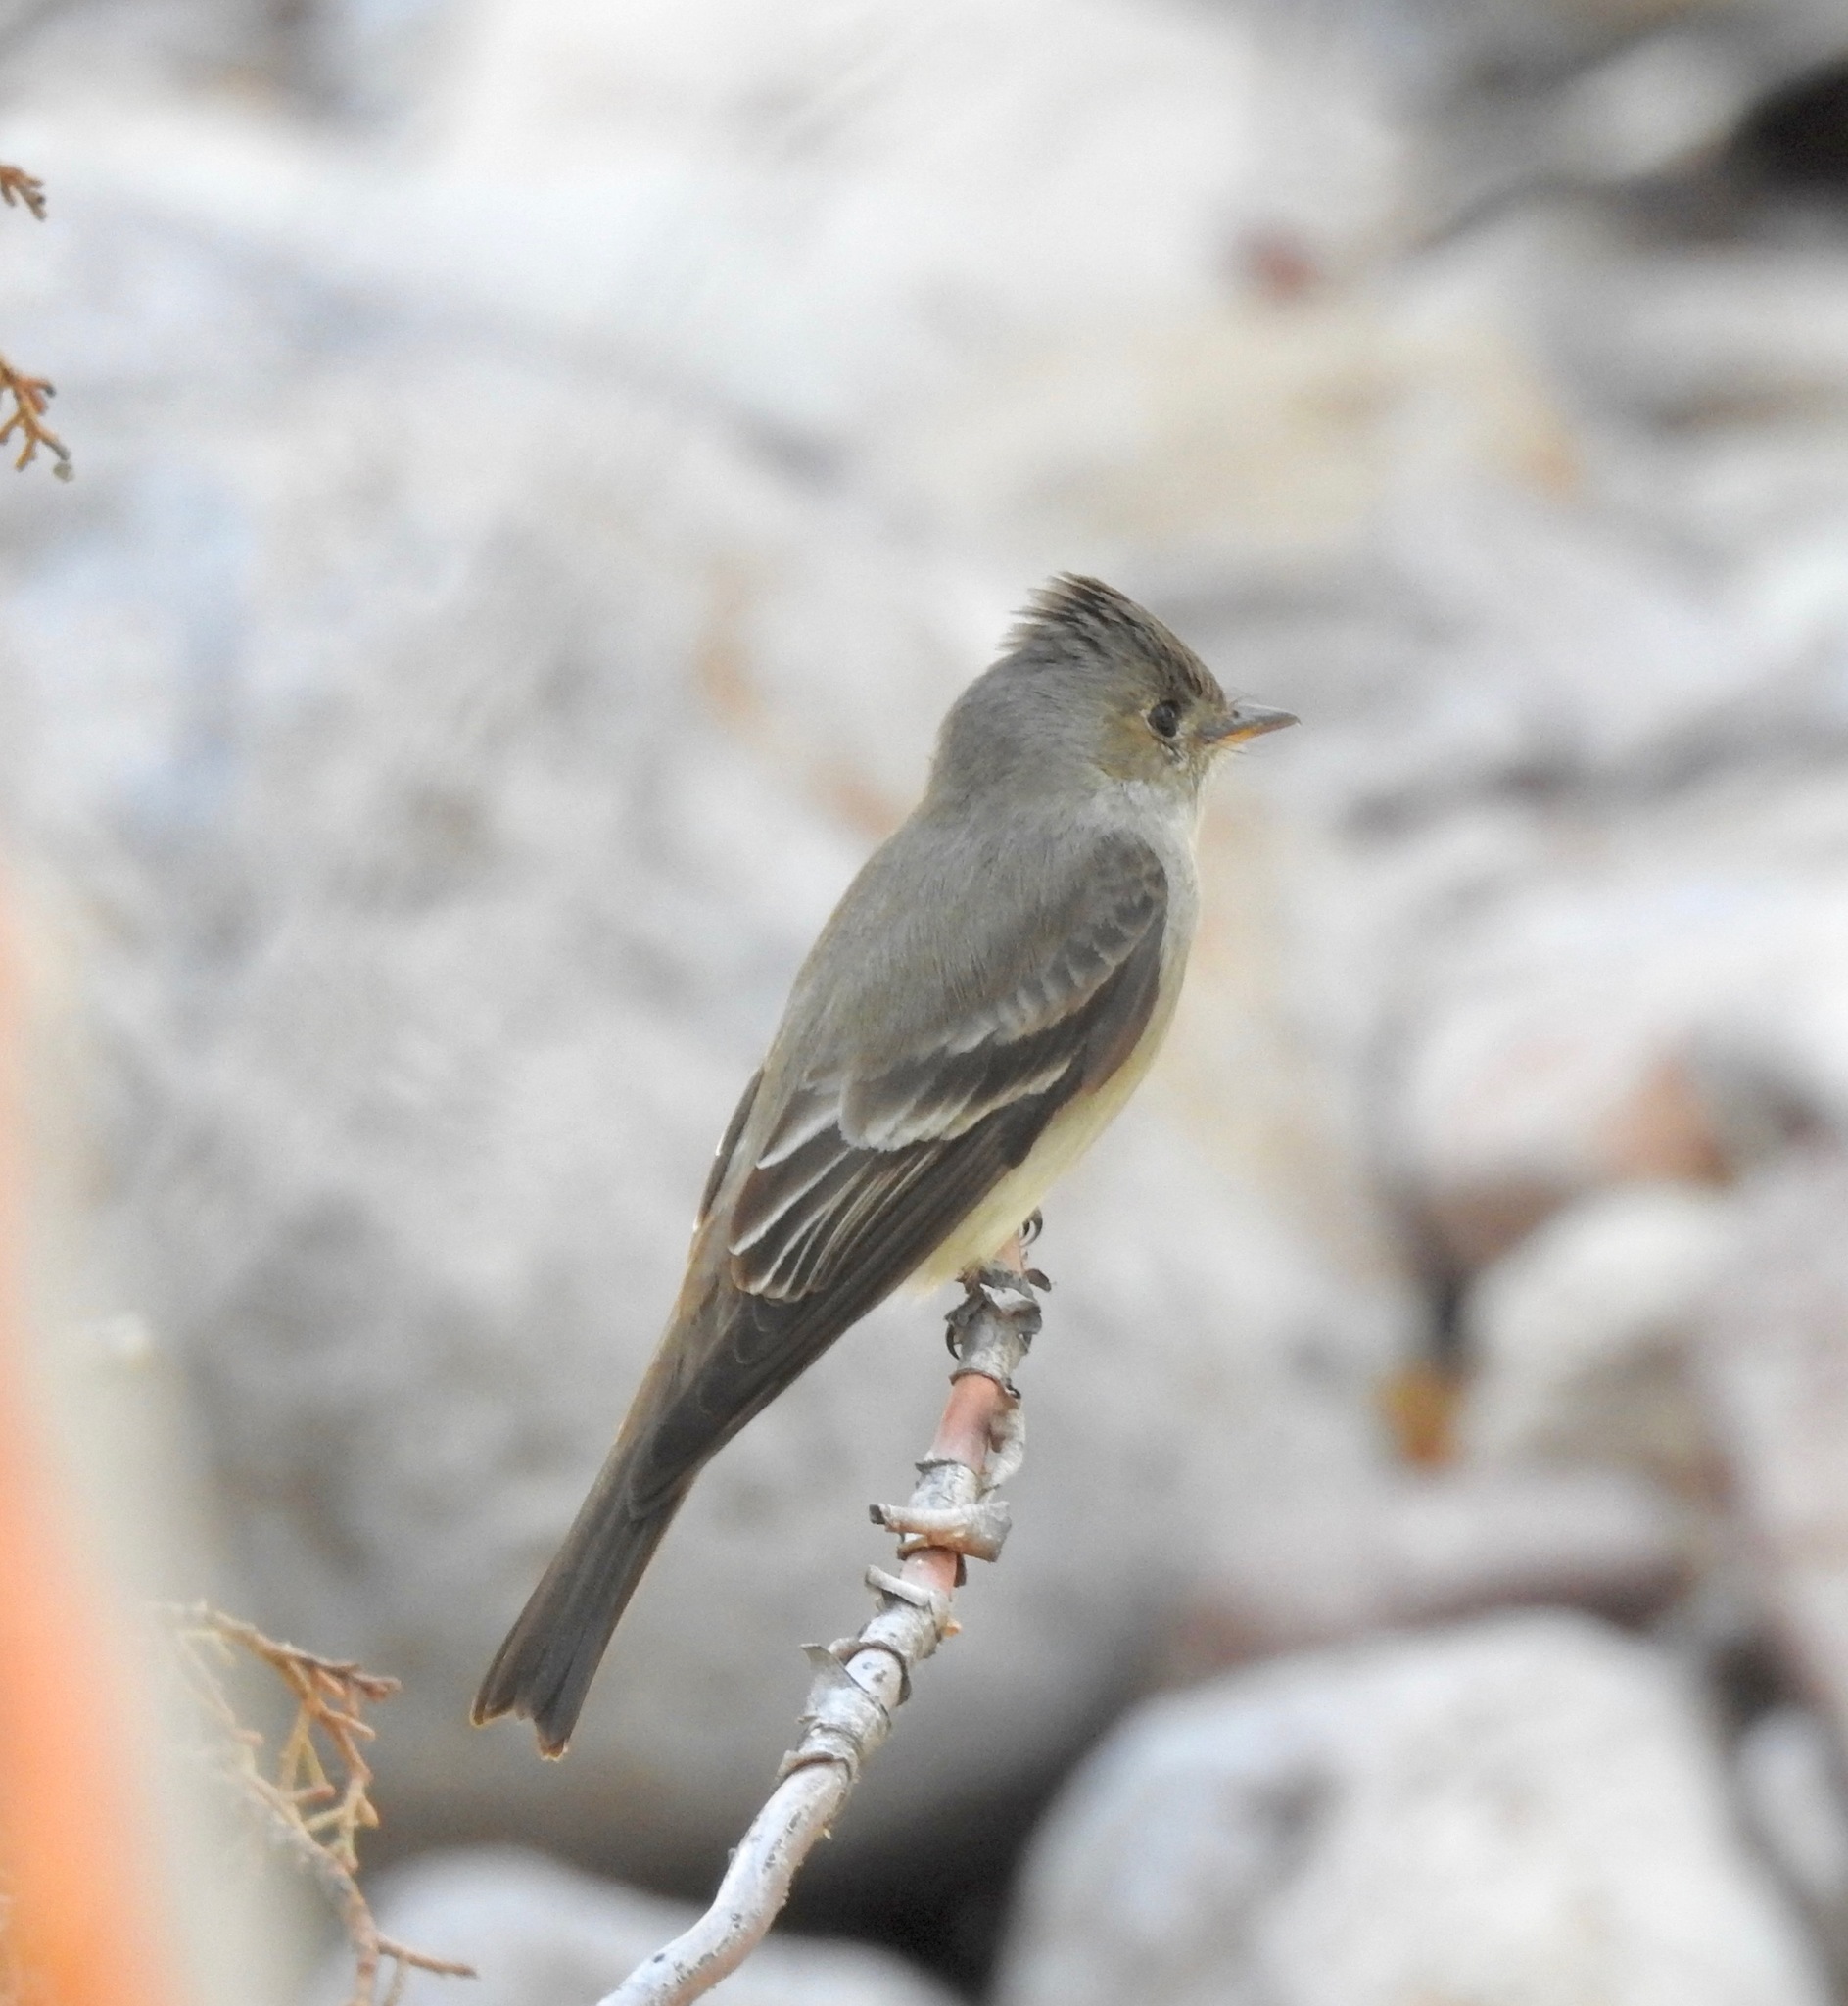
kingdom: Animalia
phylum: Chordata
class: Aves
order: Passeriformes
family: Tyrannidae
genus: Contopus
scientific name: Contopus sordidulus
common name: Western wood-pewee
